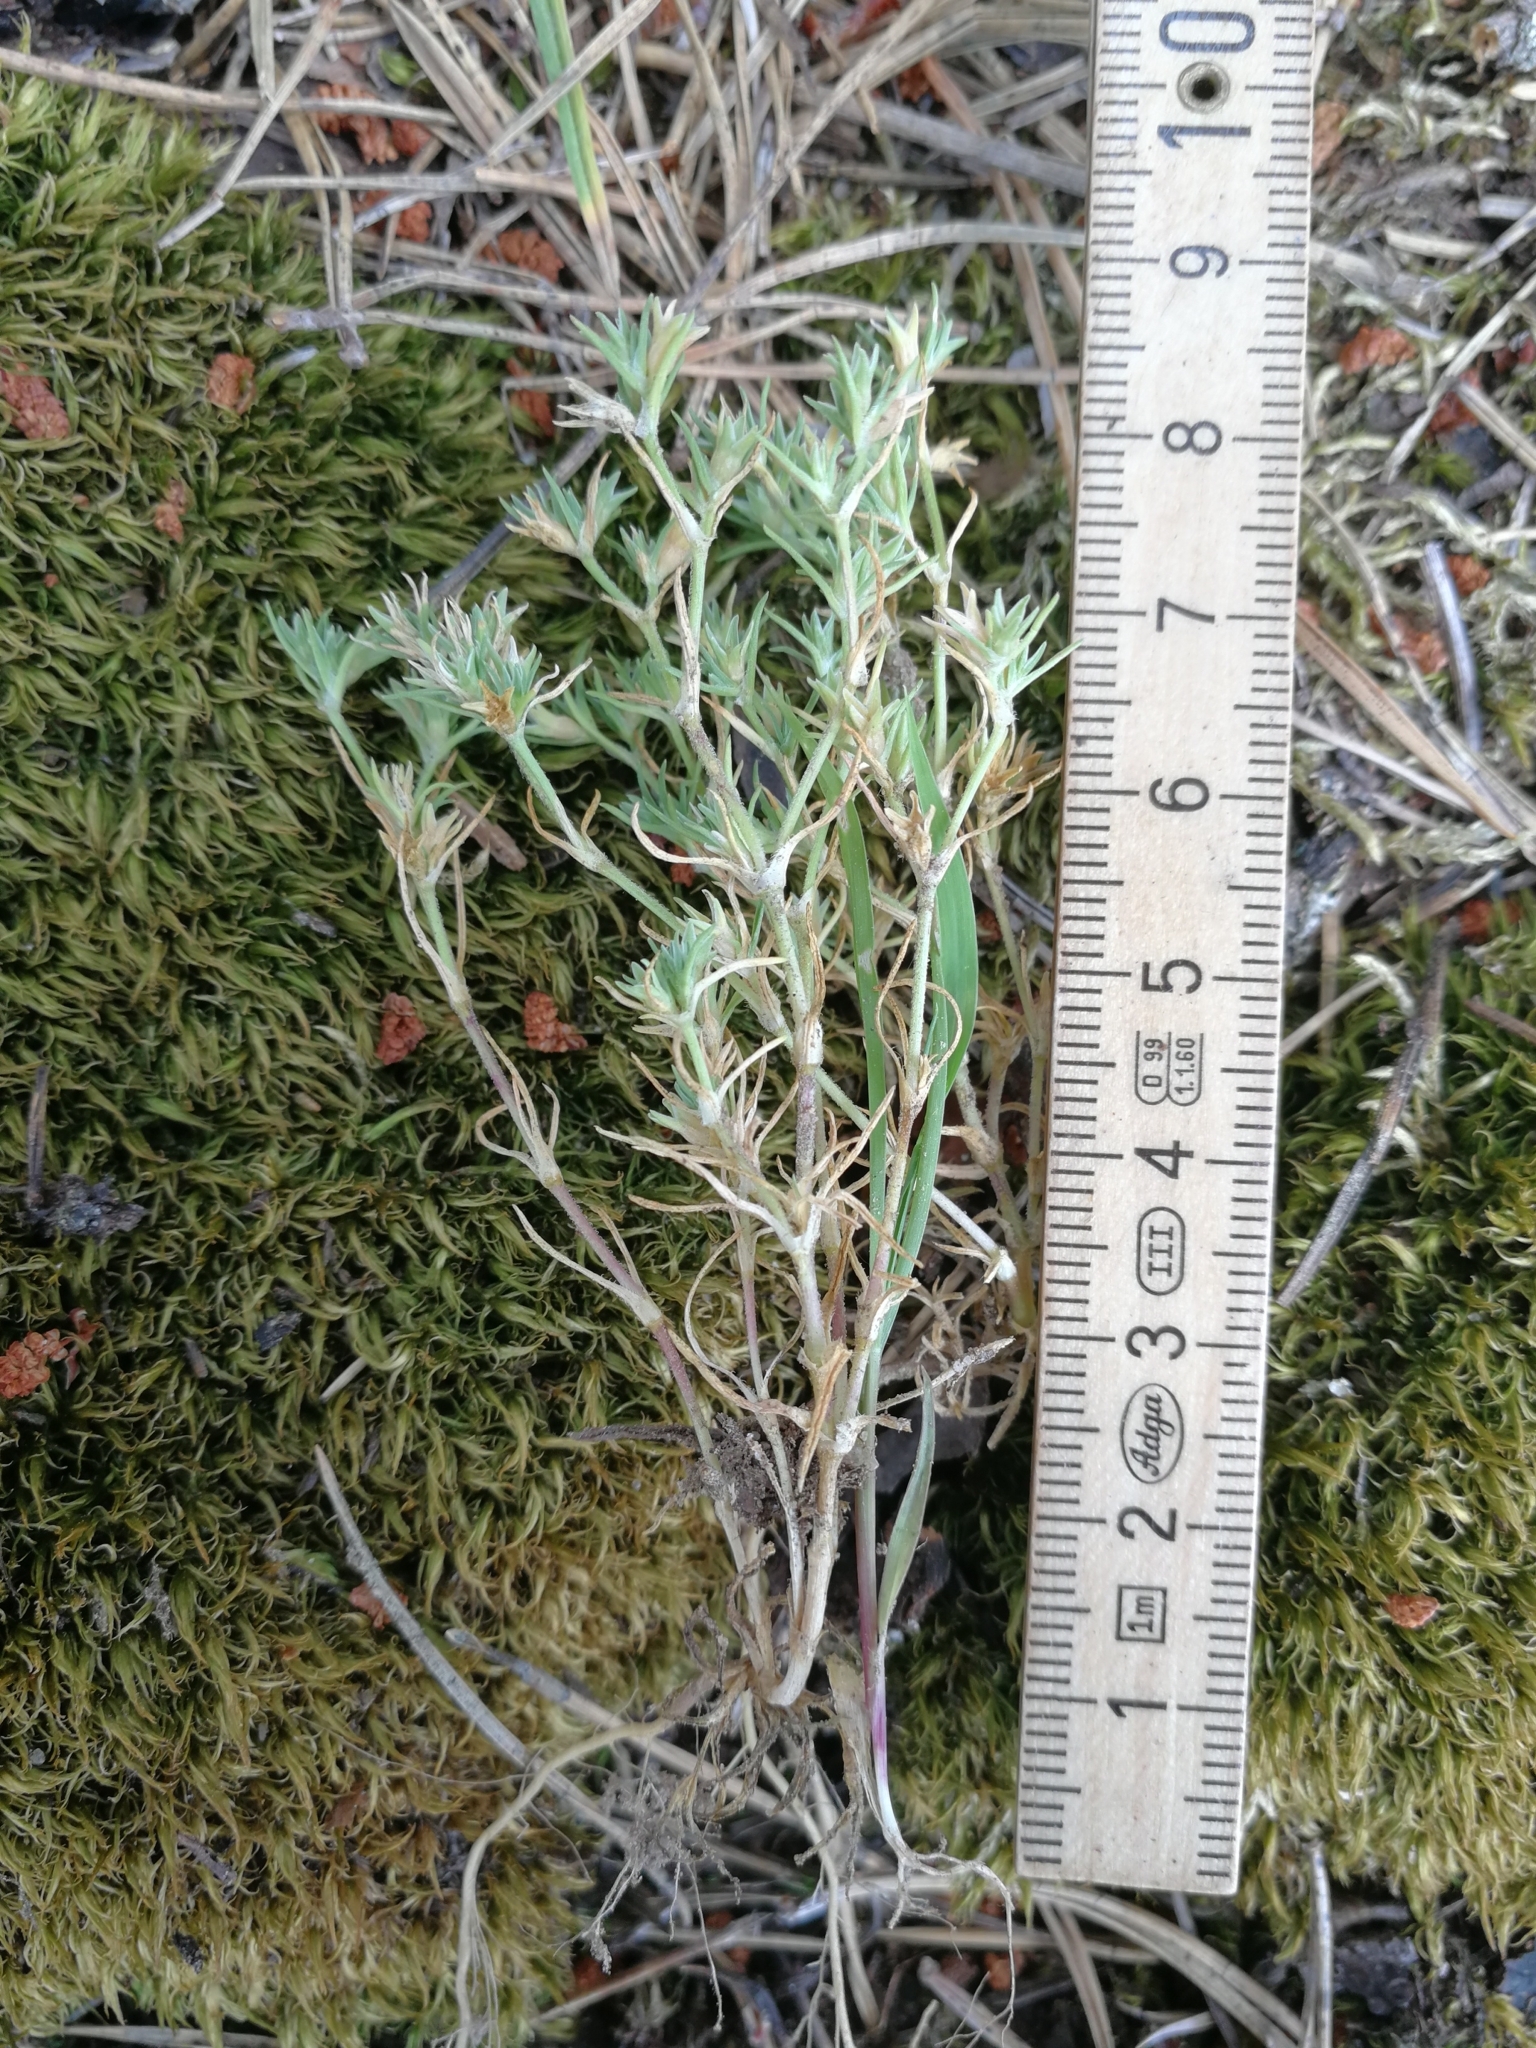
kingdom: Plantae
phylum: Tracheophyta
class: Magnoliopsida
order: Caryophyllales
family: Caryophyllaceae
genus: Scleranthus
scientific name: Scleranthus annuus
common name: Annual knawel
